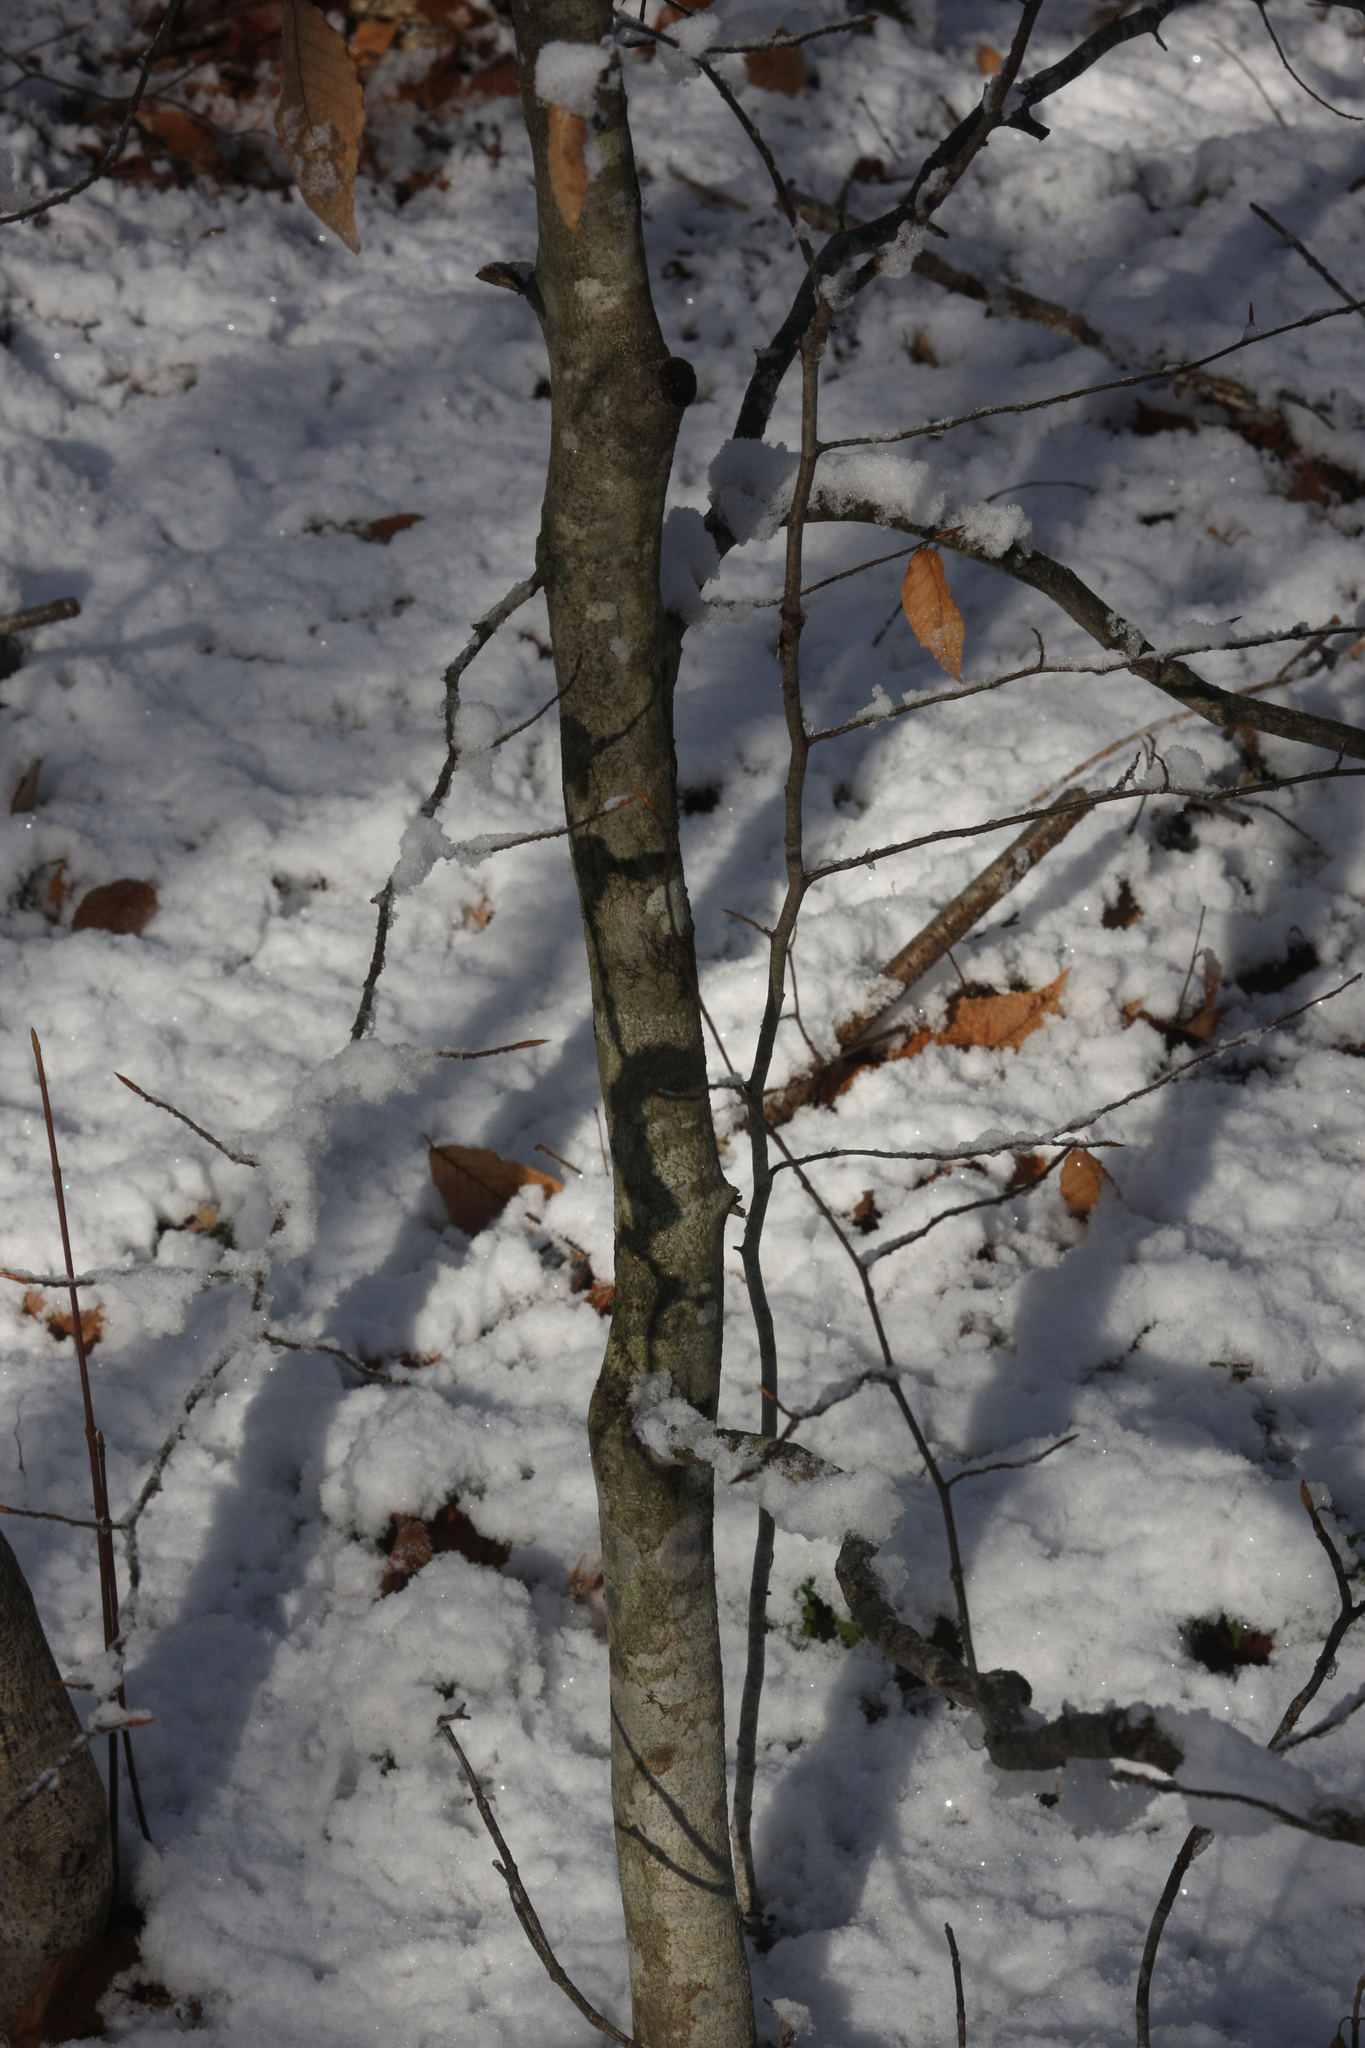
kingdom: Plantae
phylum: Tracheophyta
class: Magnoliopsida
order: Fagales
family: Fagaceae
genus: Fagus
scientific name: Fagus grandifolia
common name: American beech
